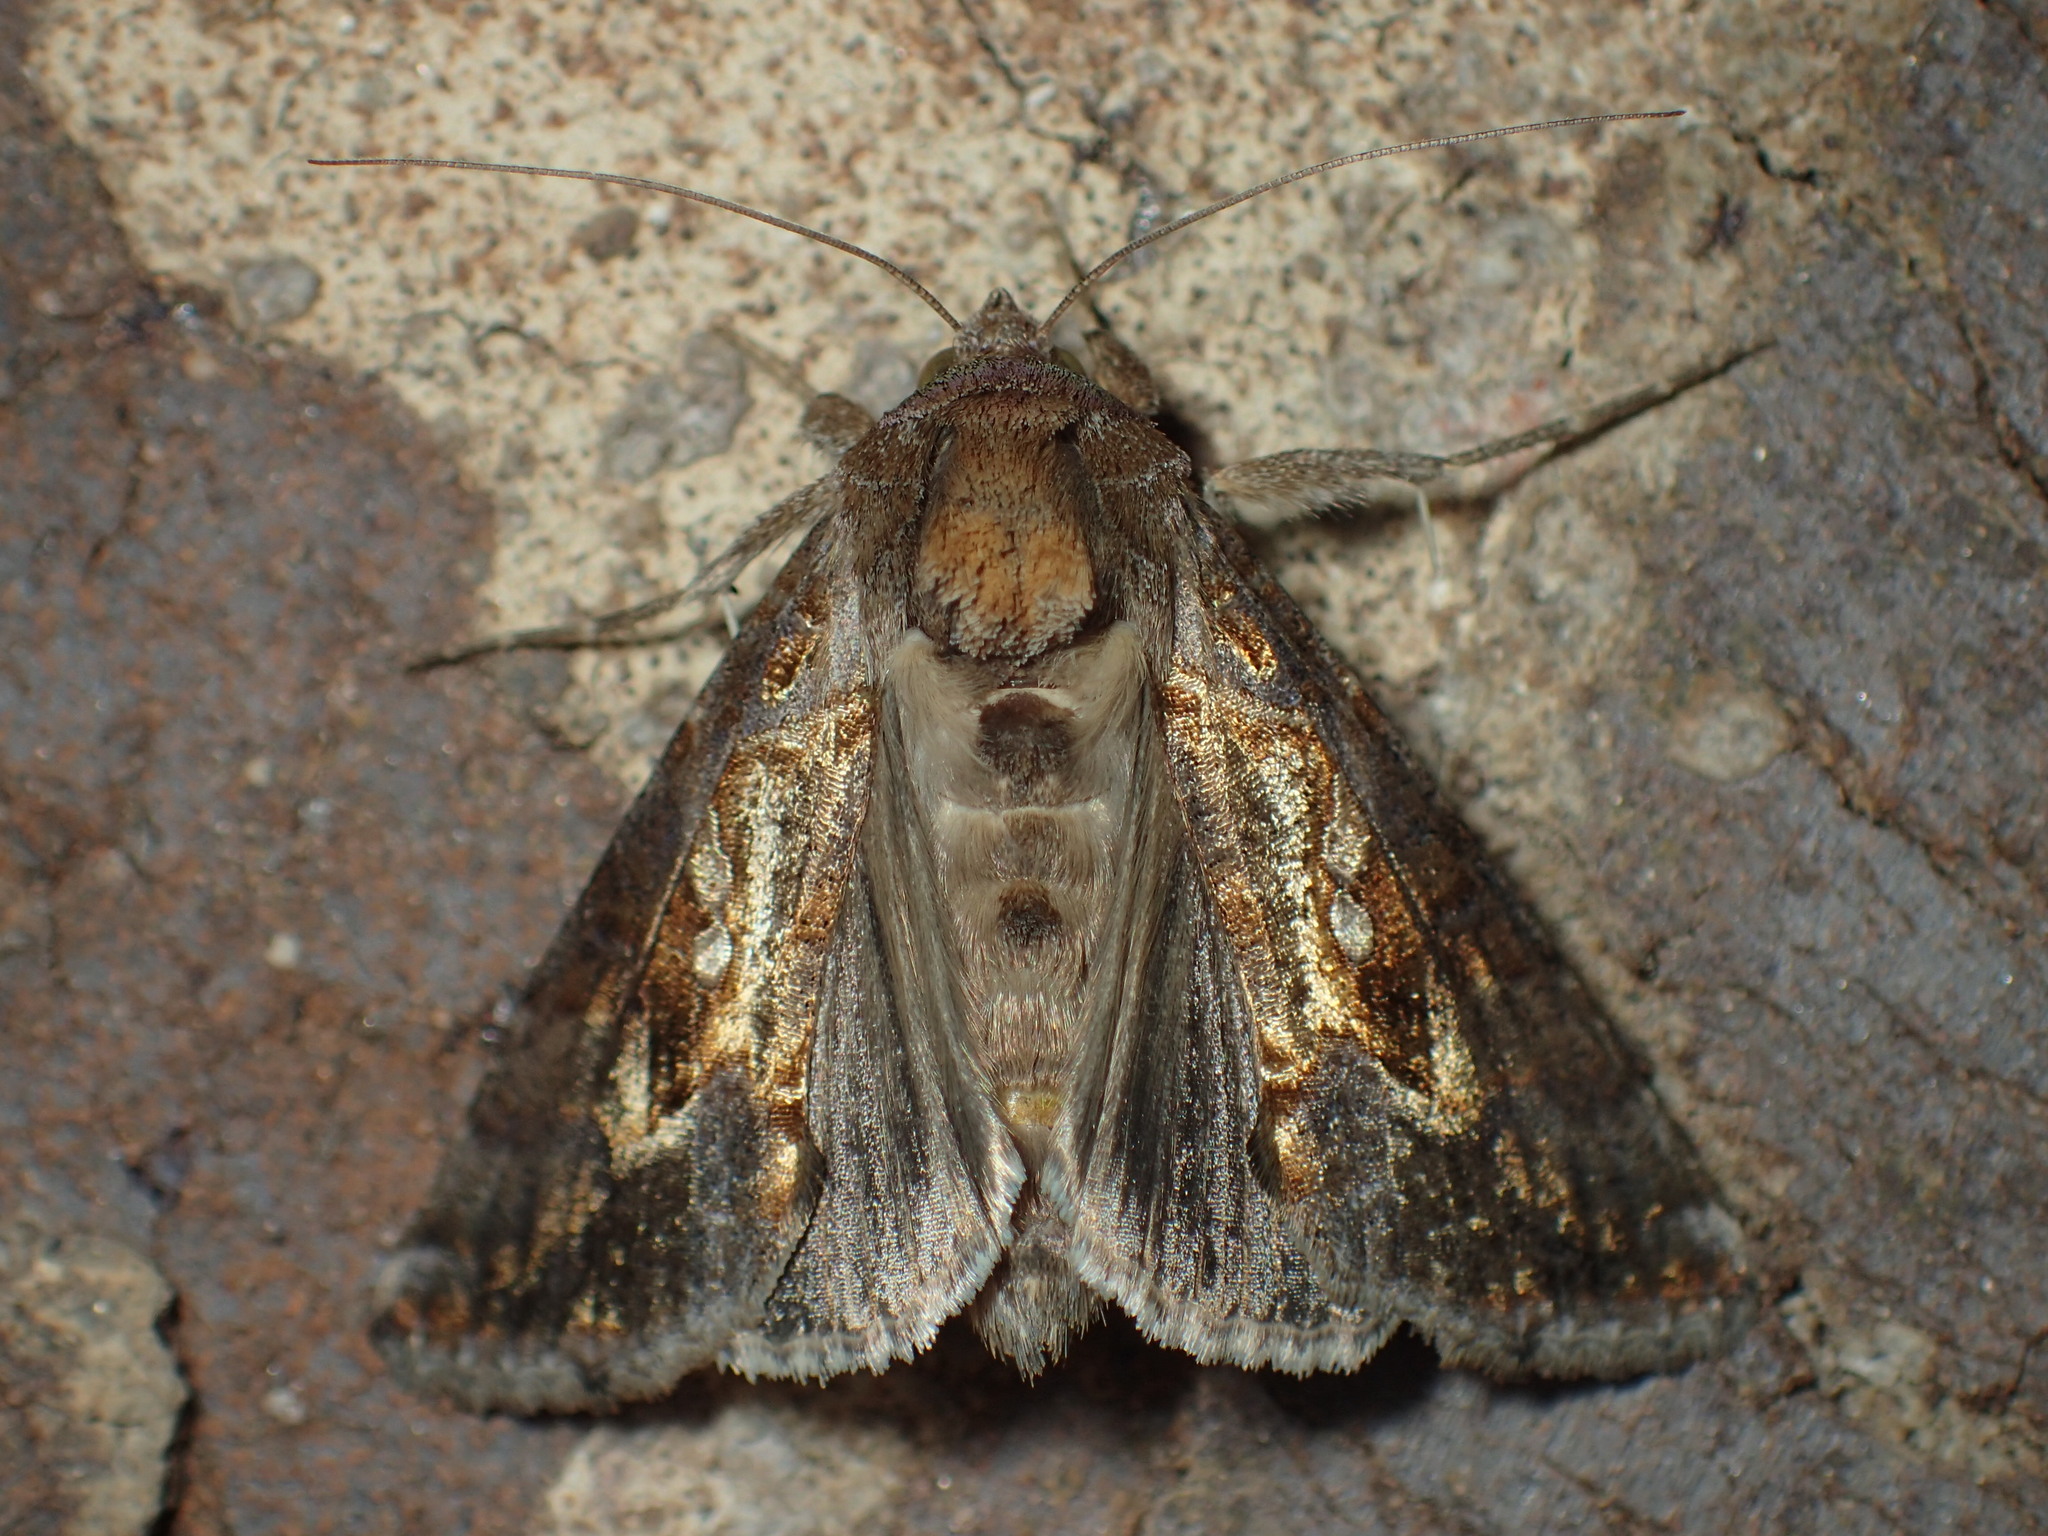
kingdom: Animalia
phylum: Arthropoda
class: Insecta
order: Lepidoptera
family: Noctuidae
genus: Chrysodeixis
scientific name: Chrysodeixis includens
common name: Cutworm moth
